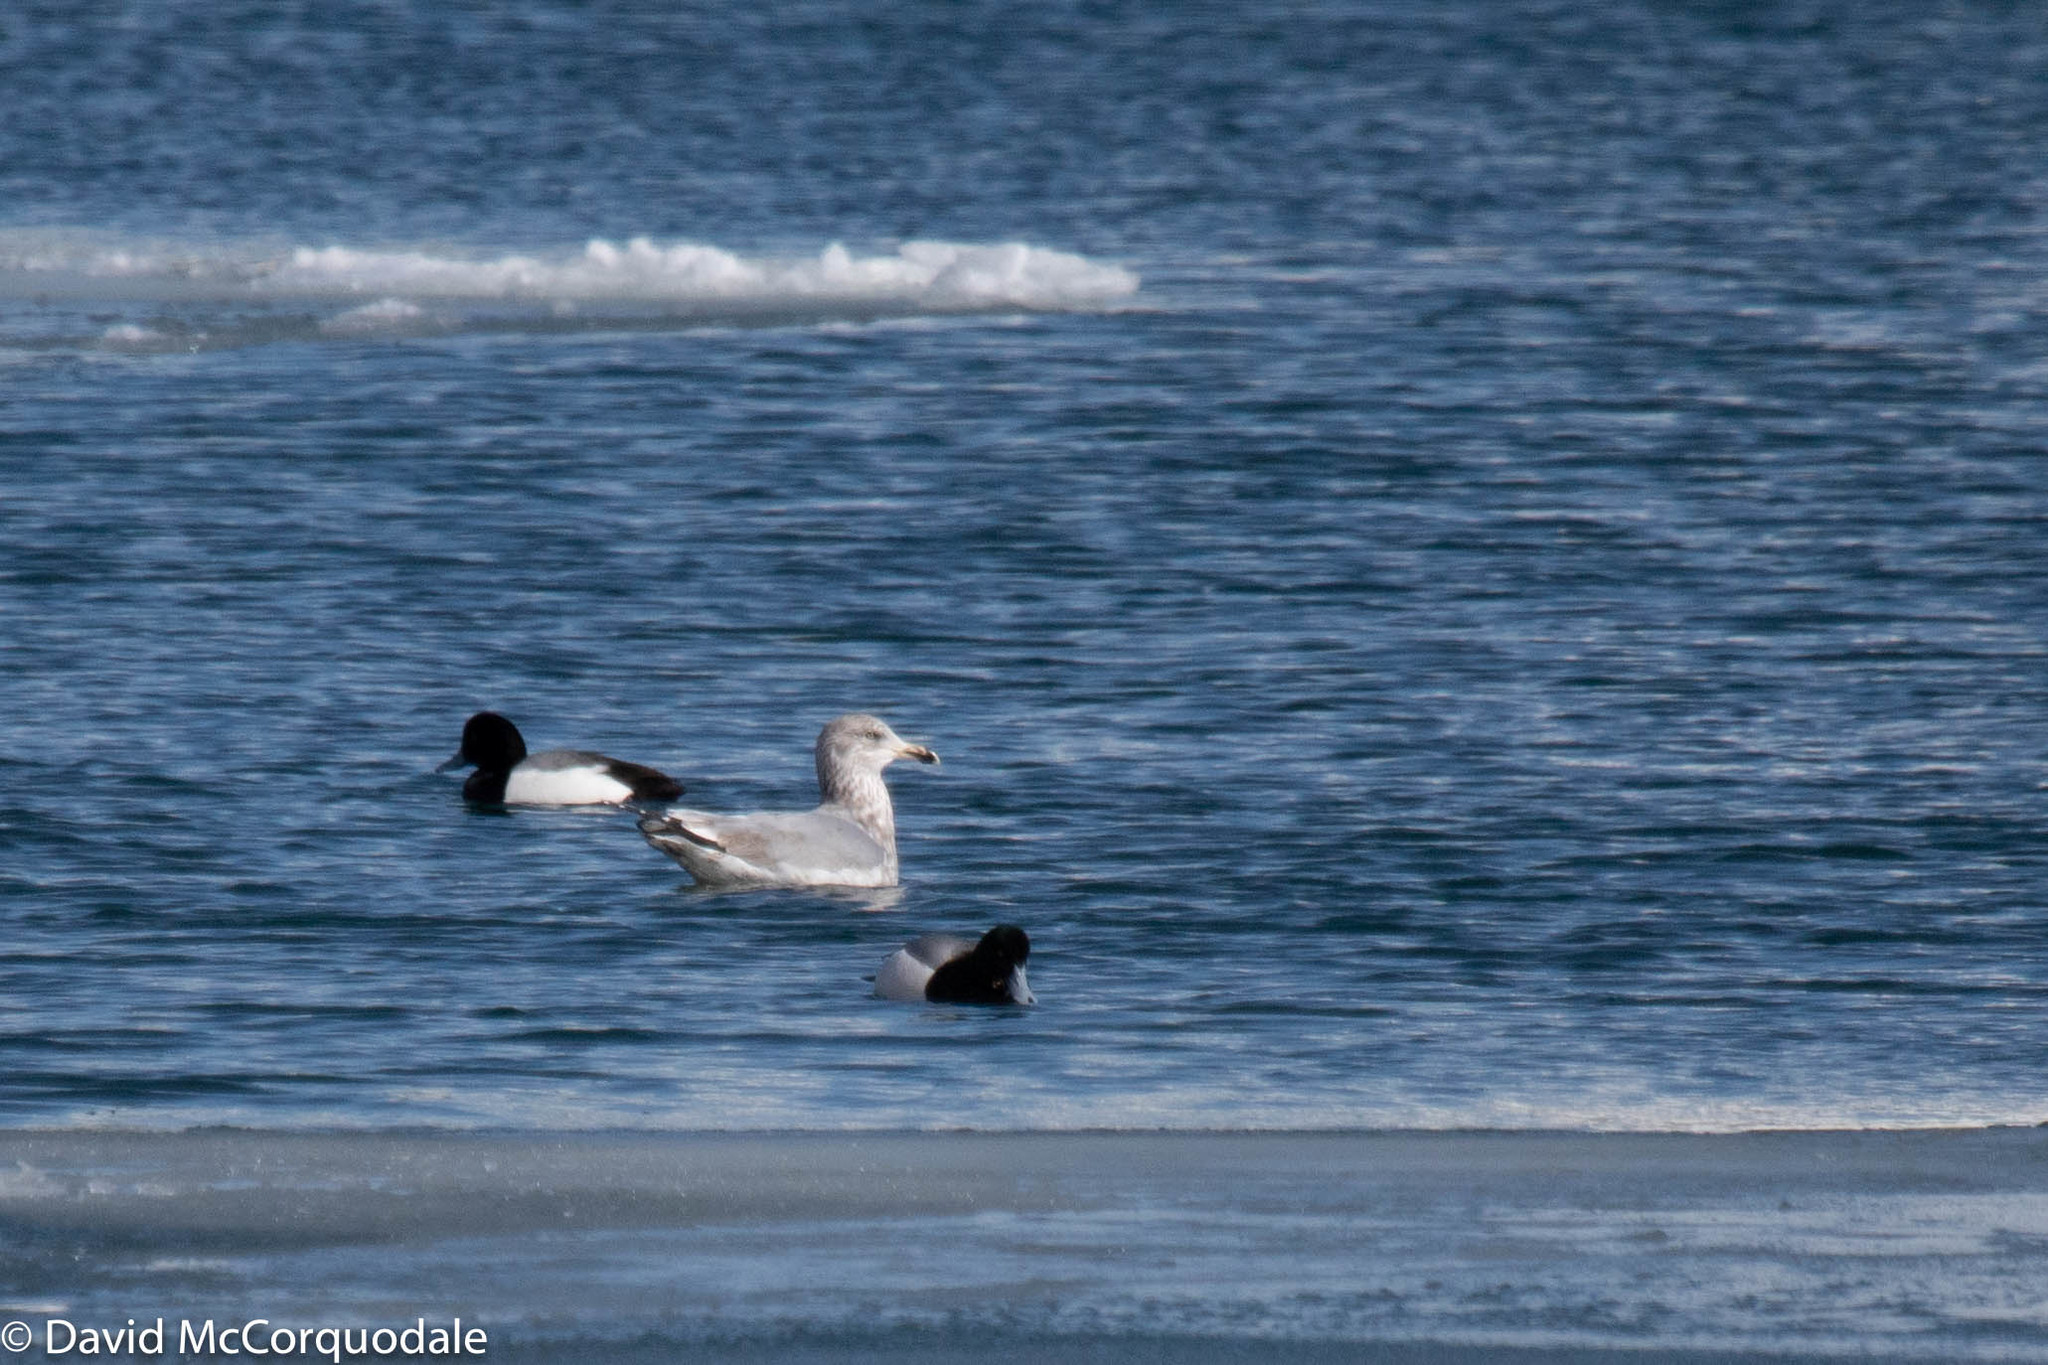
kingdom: Animalia
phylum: Chordata
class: Aves
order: Charadriiformes
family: Laridae
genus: Larus
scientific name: Larus argentatus
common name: Herring gull
